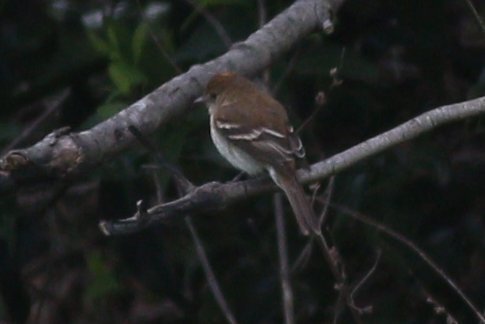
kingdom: Animalia
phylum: Chordata
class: Aves
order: Passeriformes
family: Tyrannidae
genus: Myiophobus
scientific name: Myiophobus fasciatus
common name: Bran-colored flycatcher
